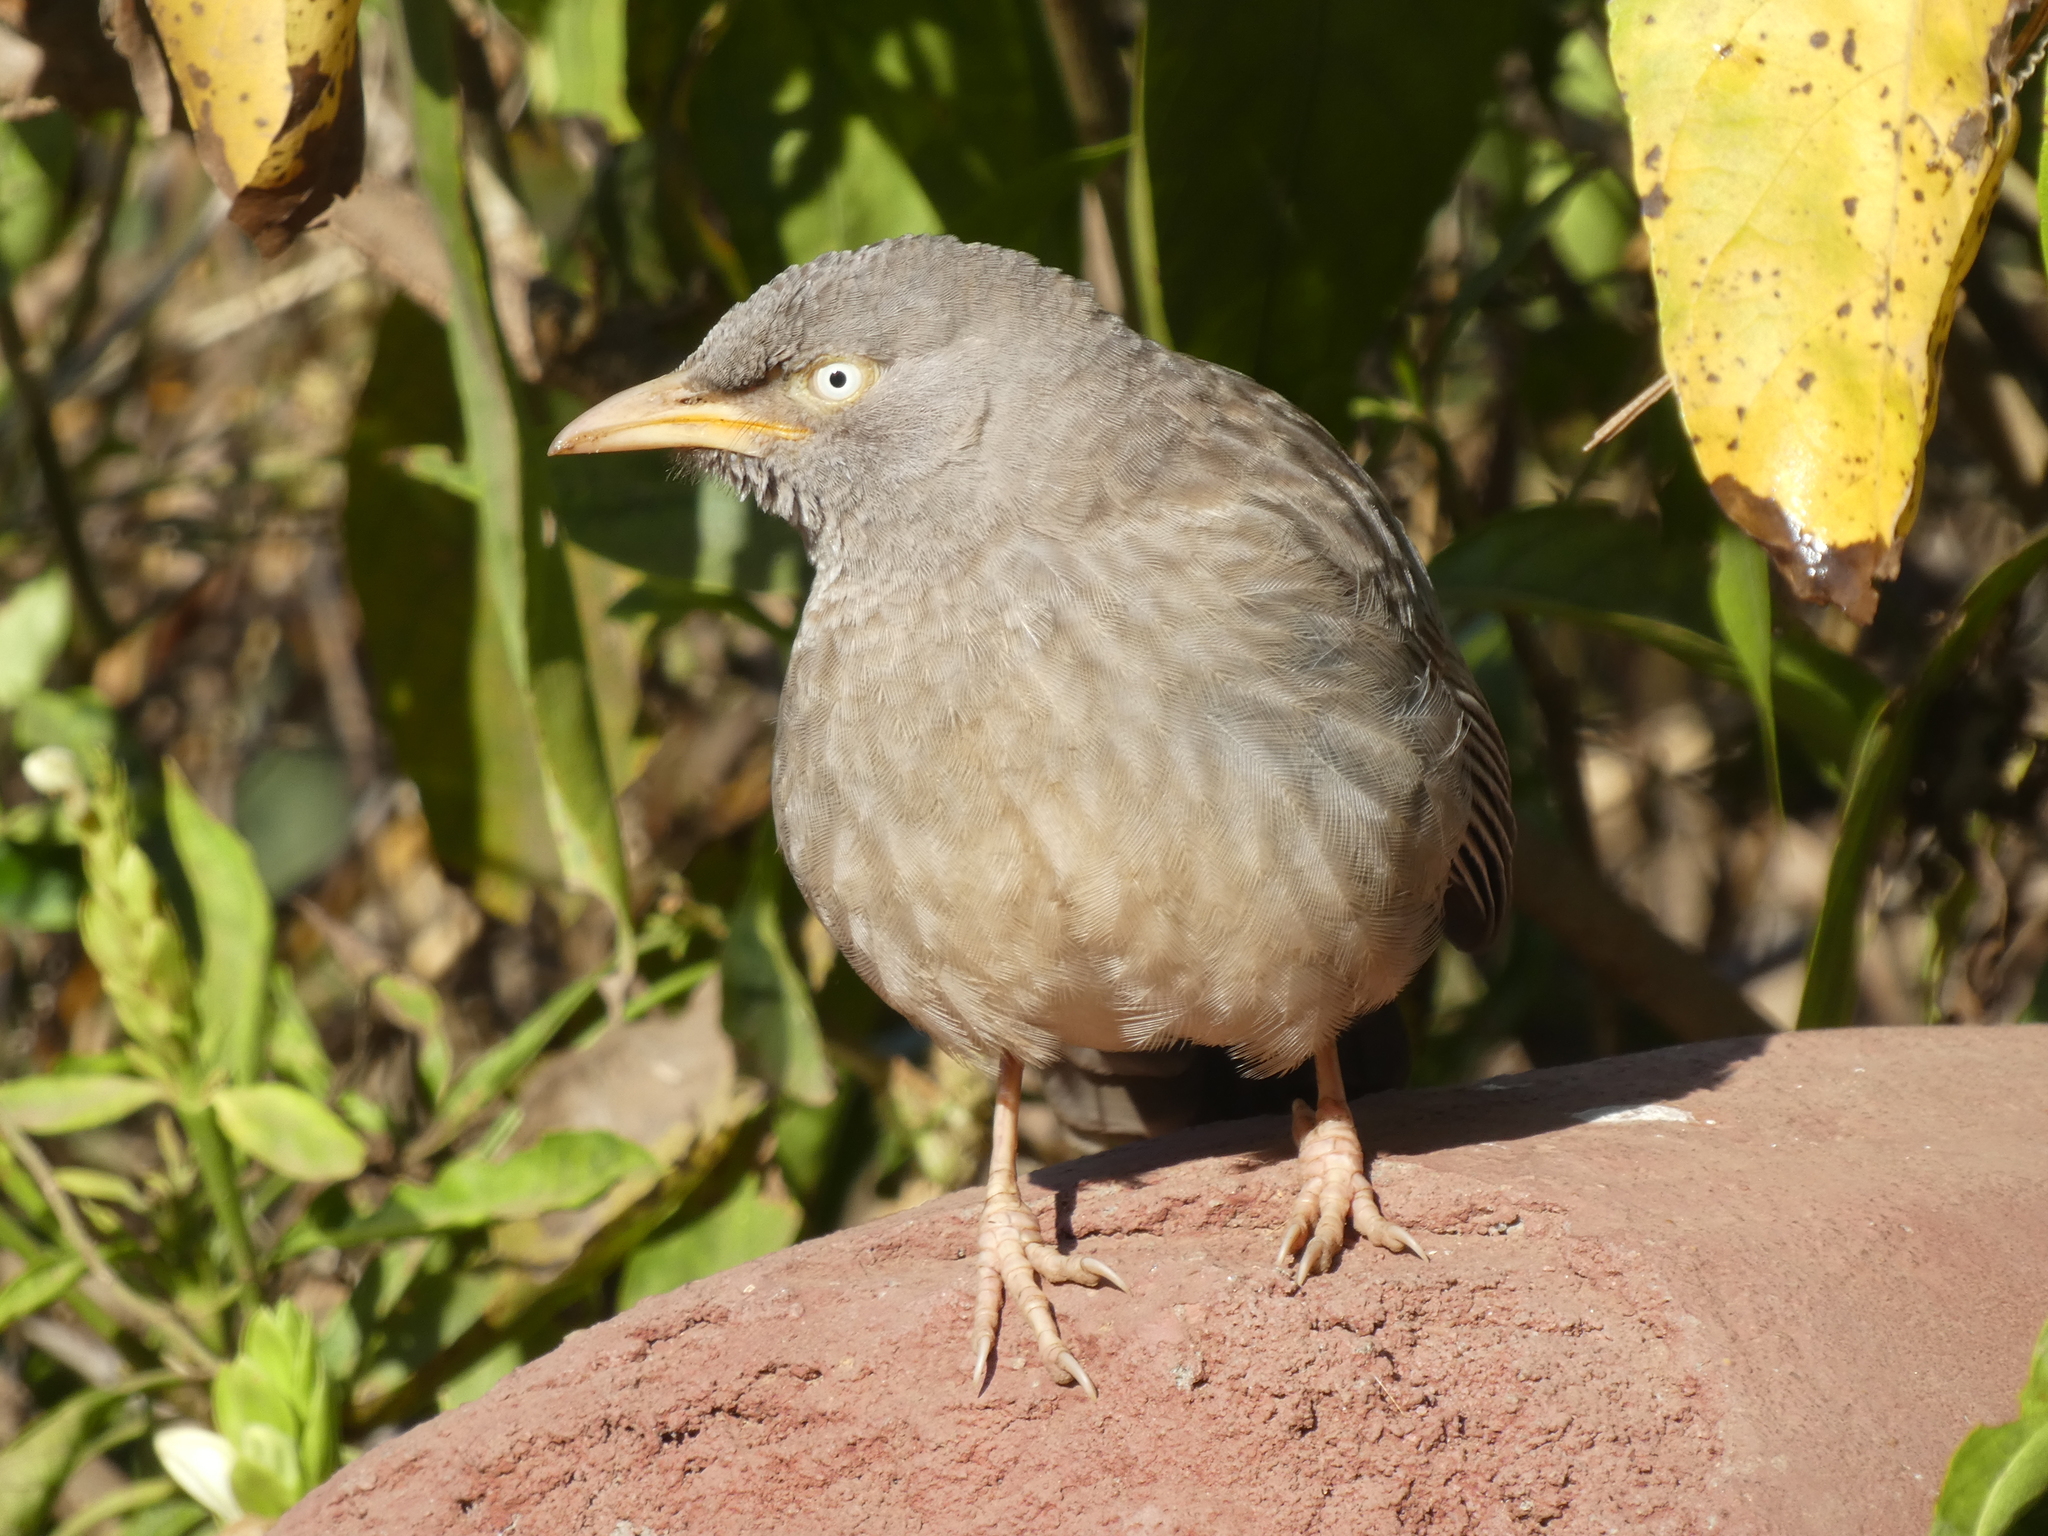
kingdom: Animalia
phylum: Chordata
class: Aves
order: Passeriformes
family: Leiothrichidae
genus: Turdoides
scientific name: Turdoides striata
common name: Jungle babbler
